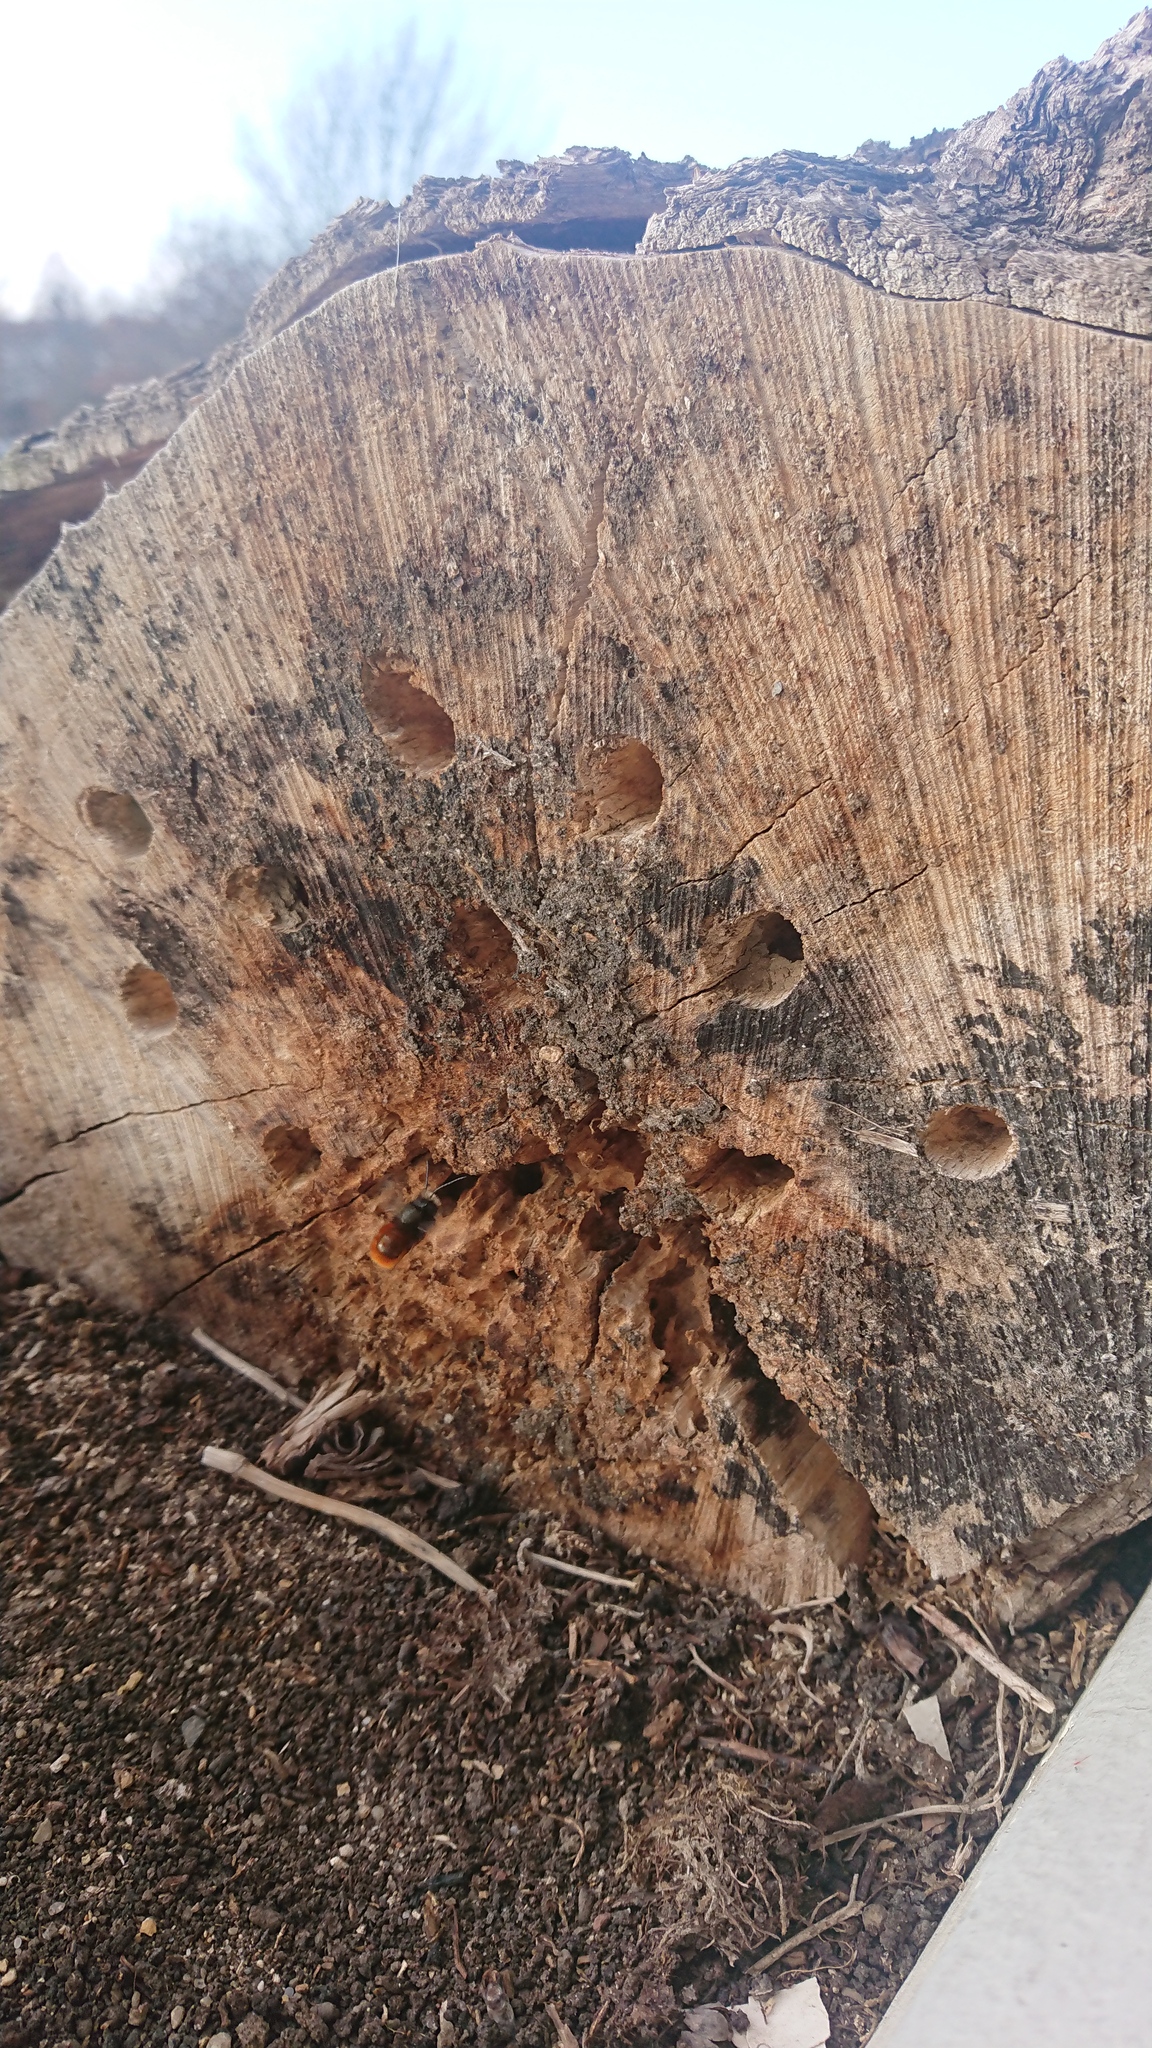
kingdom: Animalia
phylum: Arthropoda
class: Insecta
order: Hymenoptera
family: Megachilidae
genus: Osmia
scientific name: Osmia cornuta
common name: Mason bee
